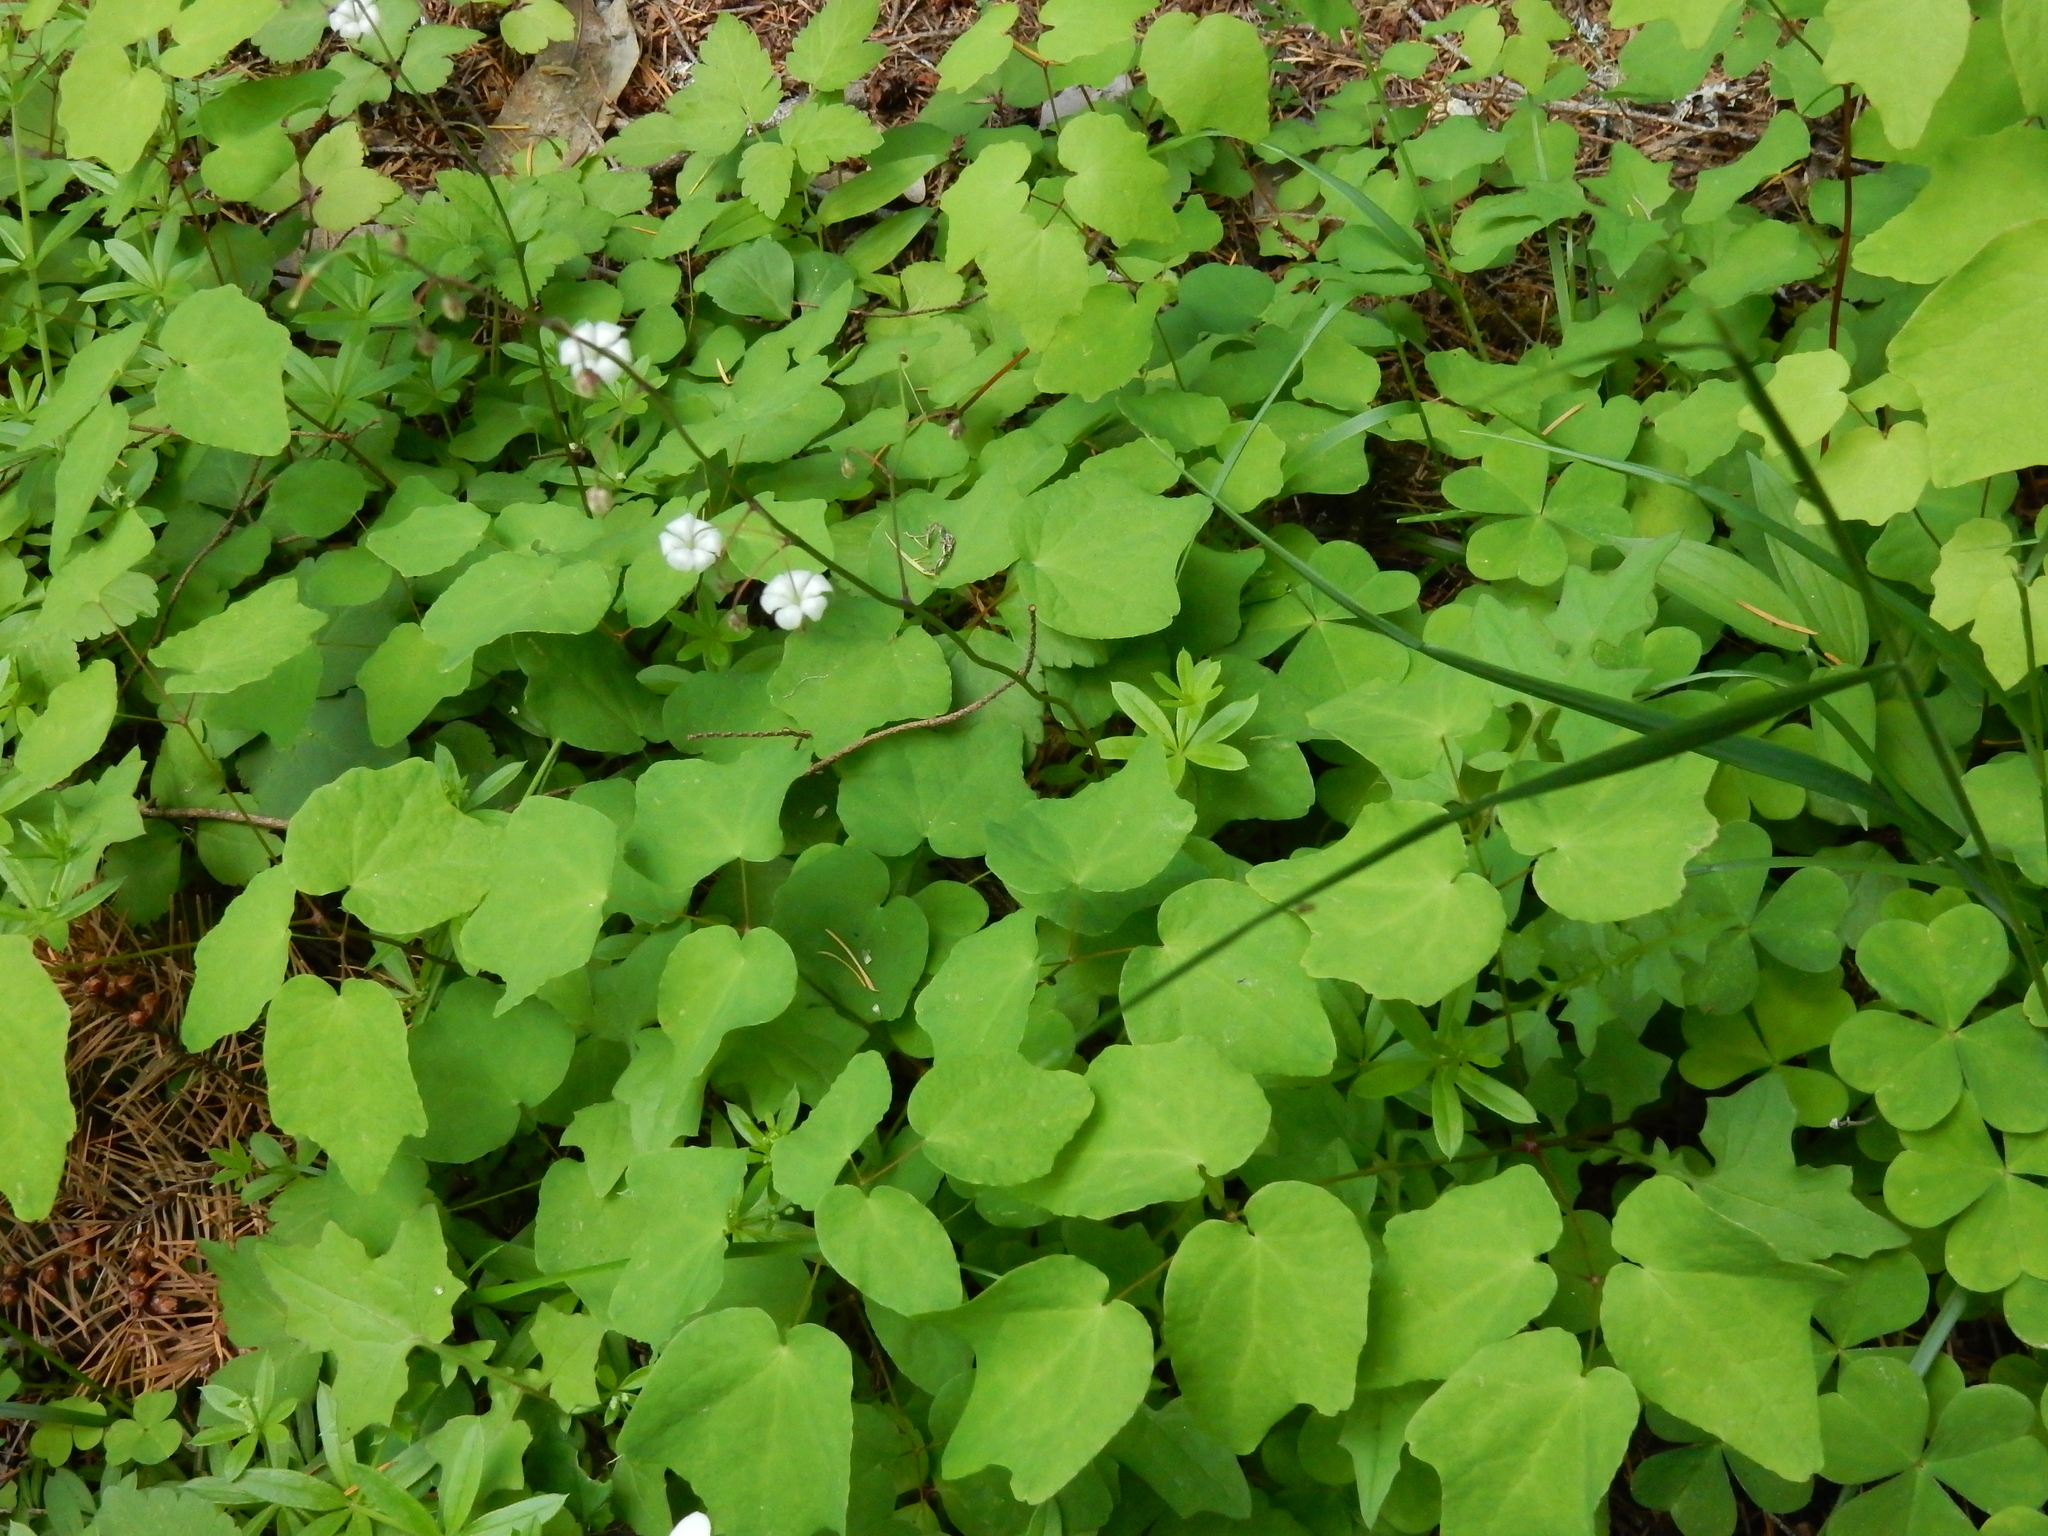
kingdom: Plantae
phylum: Tracheophyta
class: Magnoliopsida
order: Ranunculales
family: Berberidaceae
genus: Vancouveria
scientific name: Vancouveria hexandra
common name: Northern inside-out-flower
